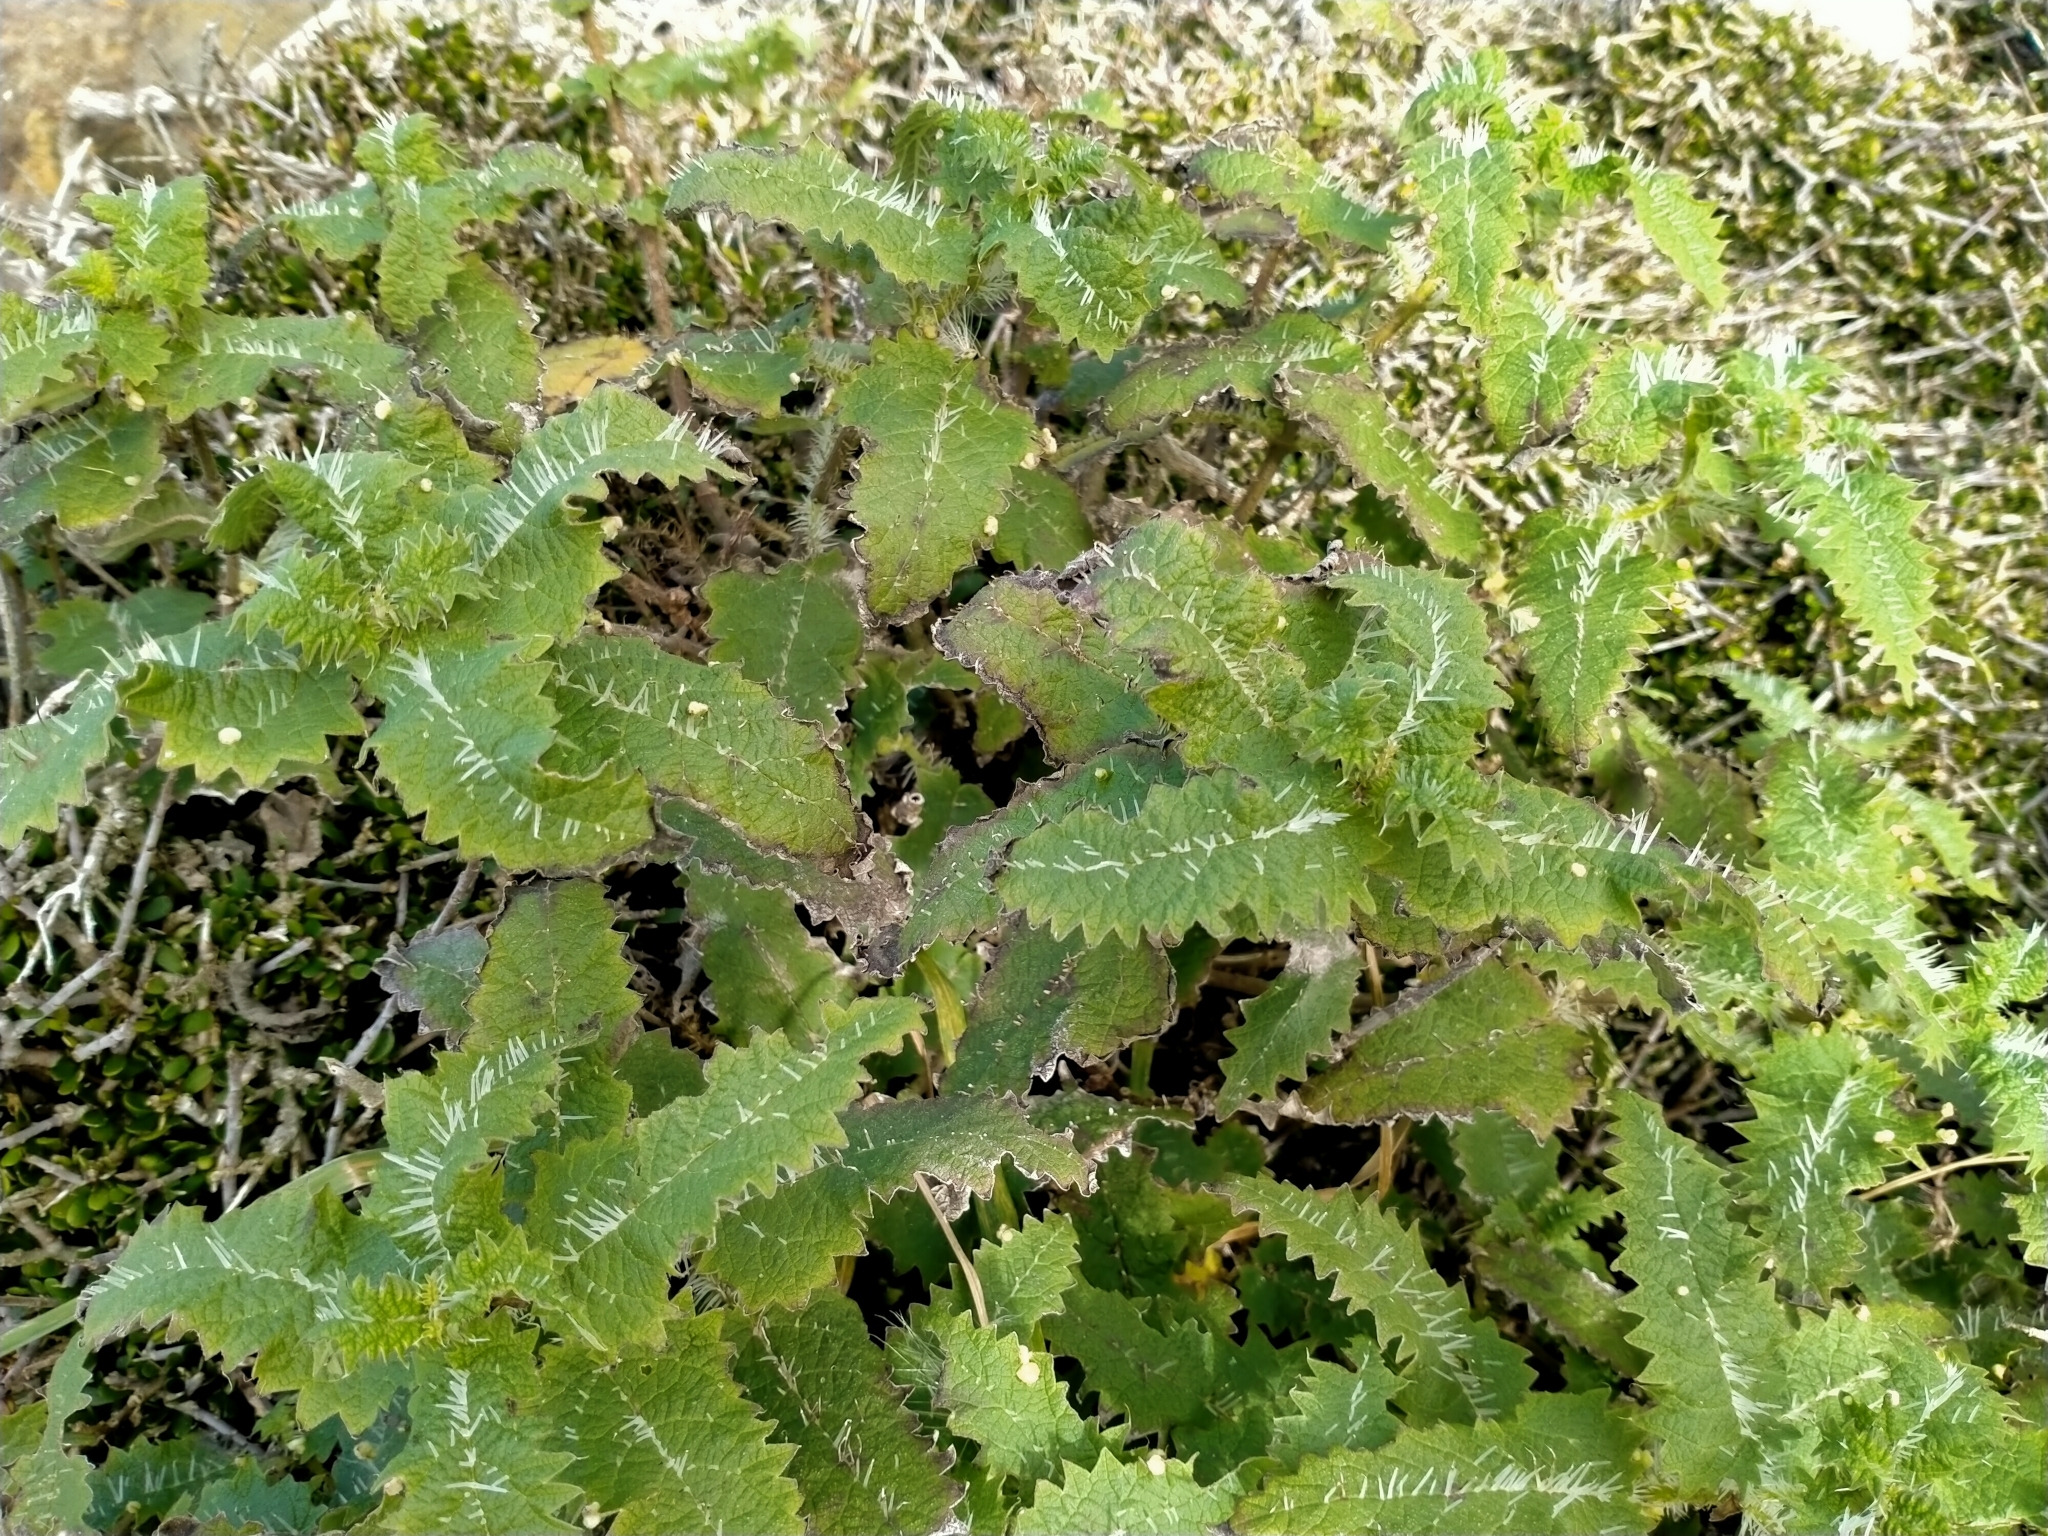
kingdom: Plantae
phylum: Tracheophyta
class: Magnoliopsida
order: Rosales
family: Urticaceae
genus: Urtica
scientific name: Urtica ferox
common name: Tree nettle
